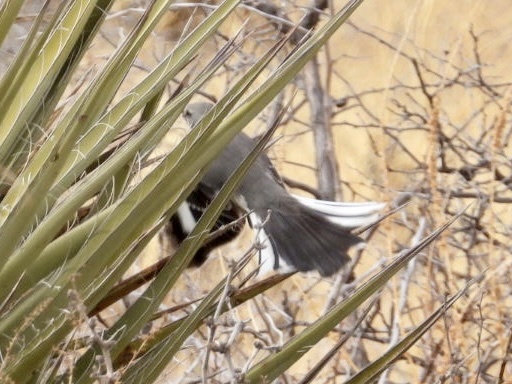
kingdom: Animalia
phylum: Chordata
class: Aves
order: Passeriformes
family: Mimidae
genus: Mimus
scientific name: Mimus polyglottos
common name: Northern mockingbird
